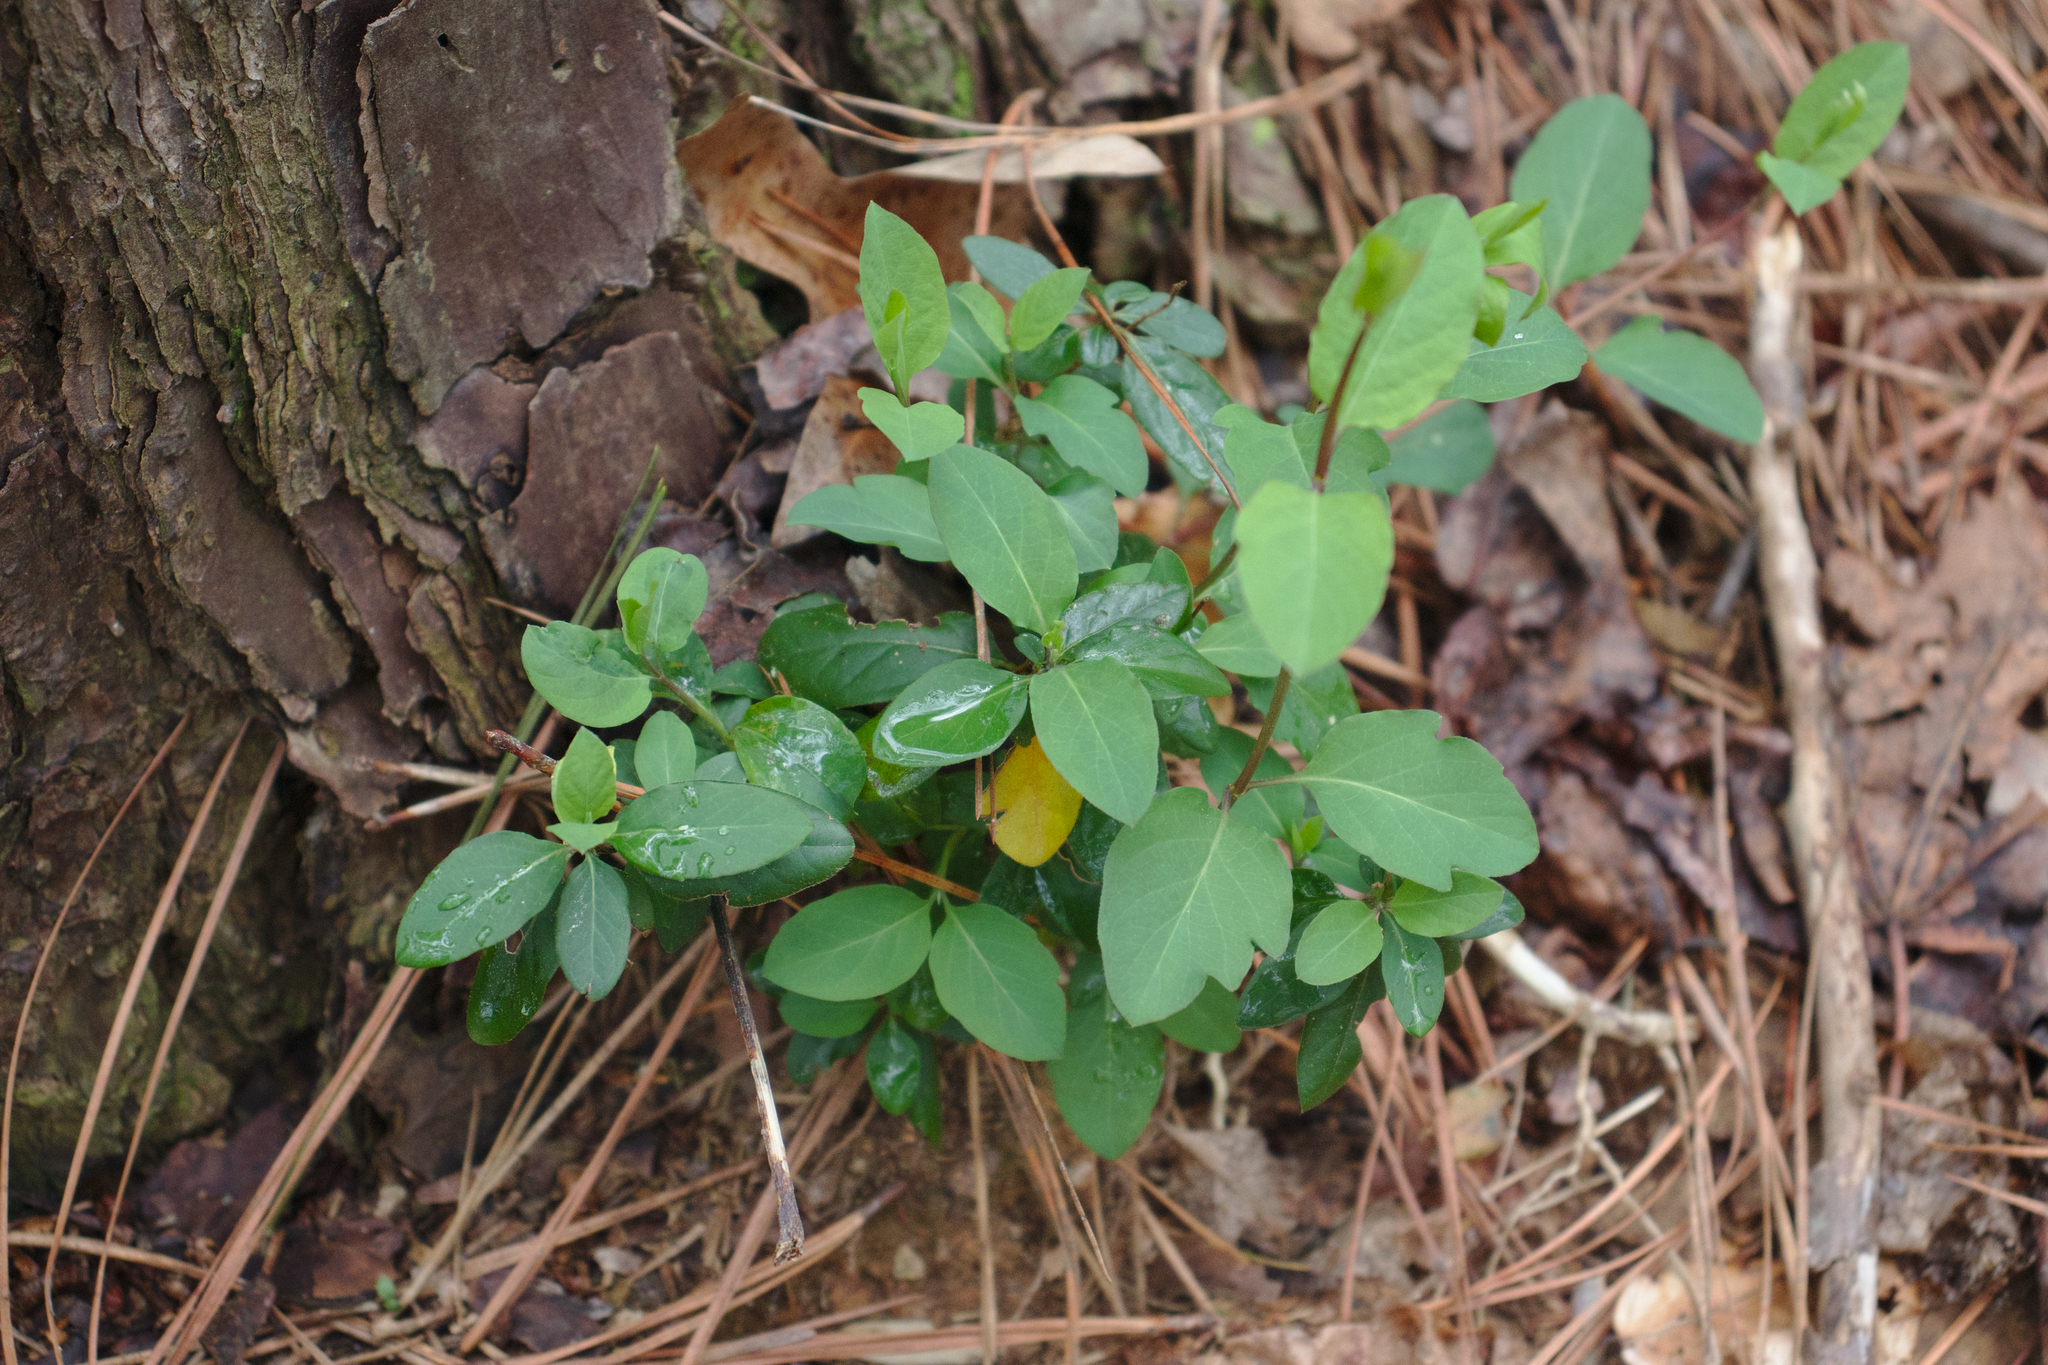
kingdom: Plantae
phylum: Tracheophyta
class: Magnoliopsida
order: Dipsacales
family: Caprifoliaceae
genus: Lonicera
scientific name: Lonicera japonica
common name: Japanese honeysuckle
